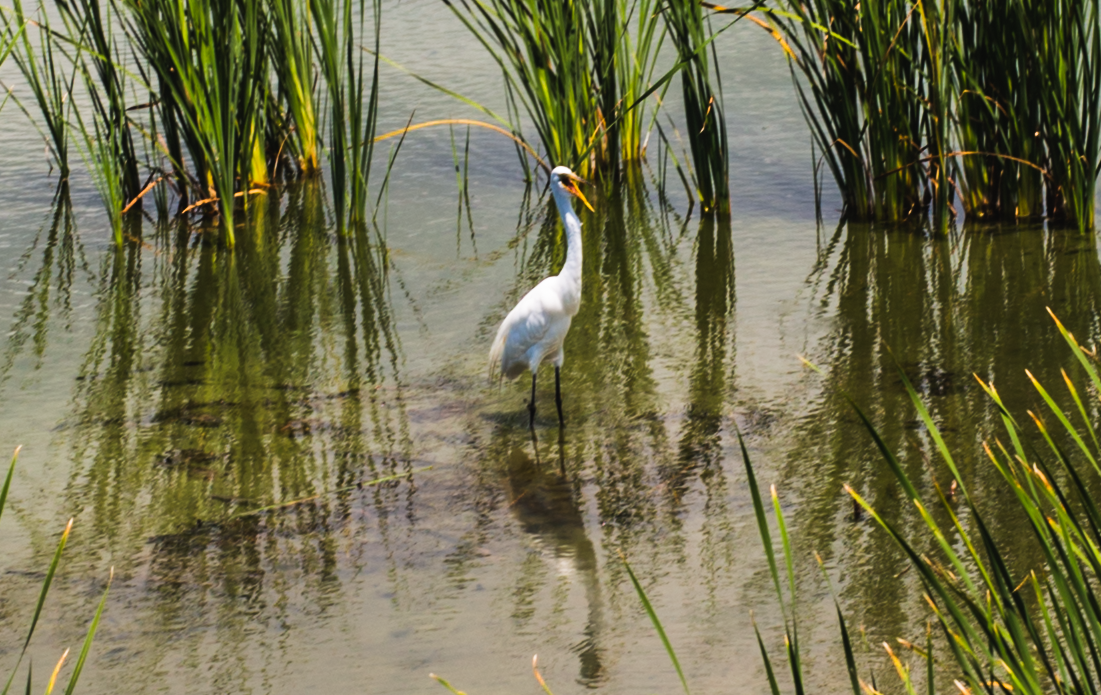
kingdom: Animalia
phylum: Chordata
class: Aves
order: Pelecaniformes
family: Ardeidae
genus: Ardea
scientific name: Ardea alba
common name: Great egret
